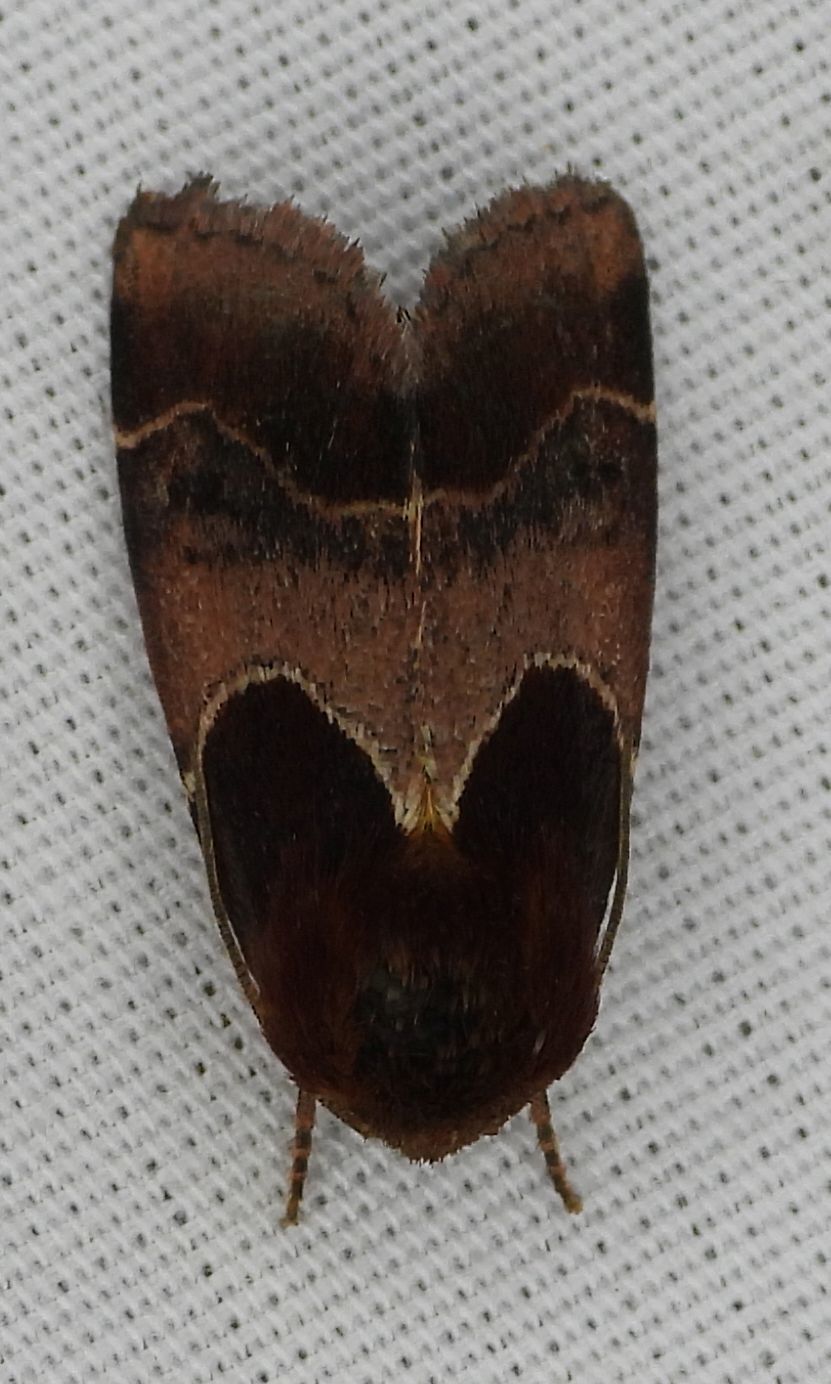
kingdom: Animalia
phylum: Arthropoda
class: Insecta
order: Lepidoptera
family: Noctuidae
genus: Schinia
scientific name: Schinia arcigera
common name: Arcigera flower moth
